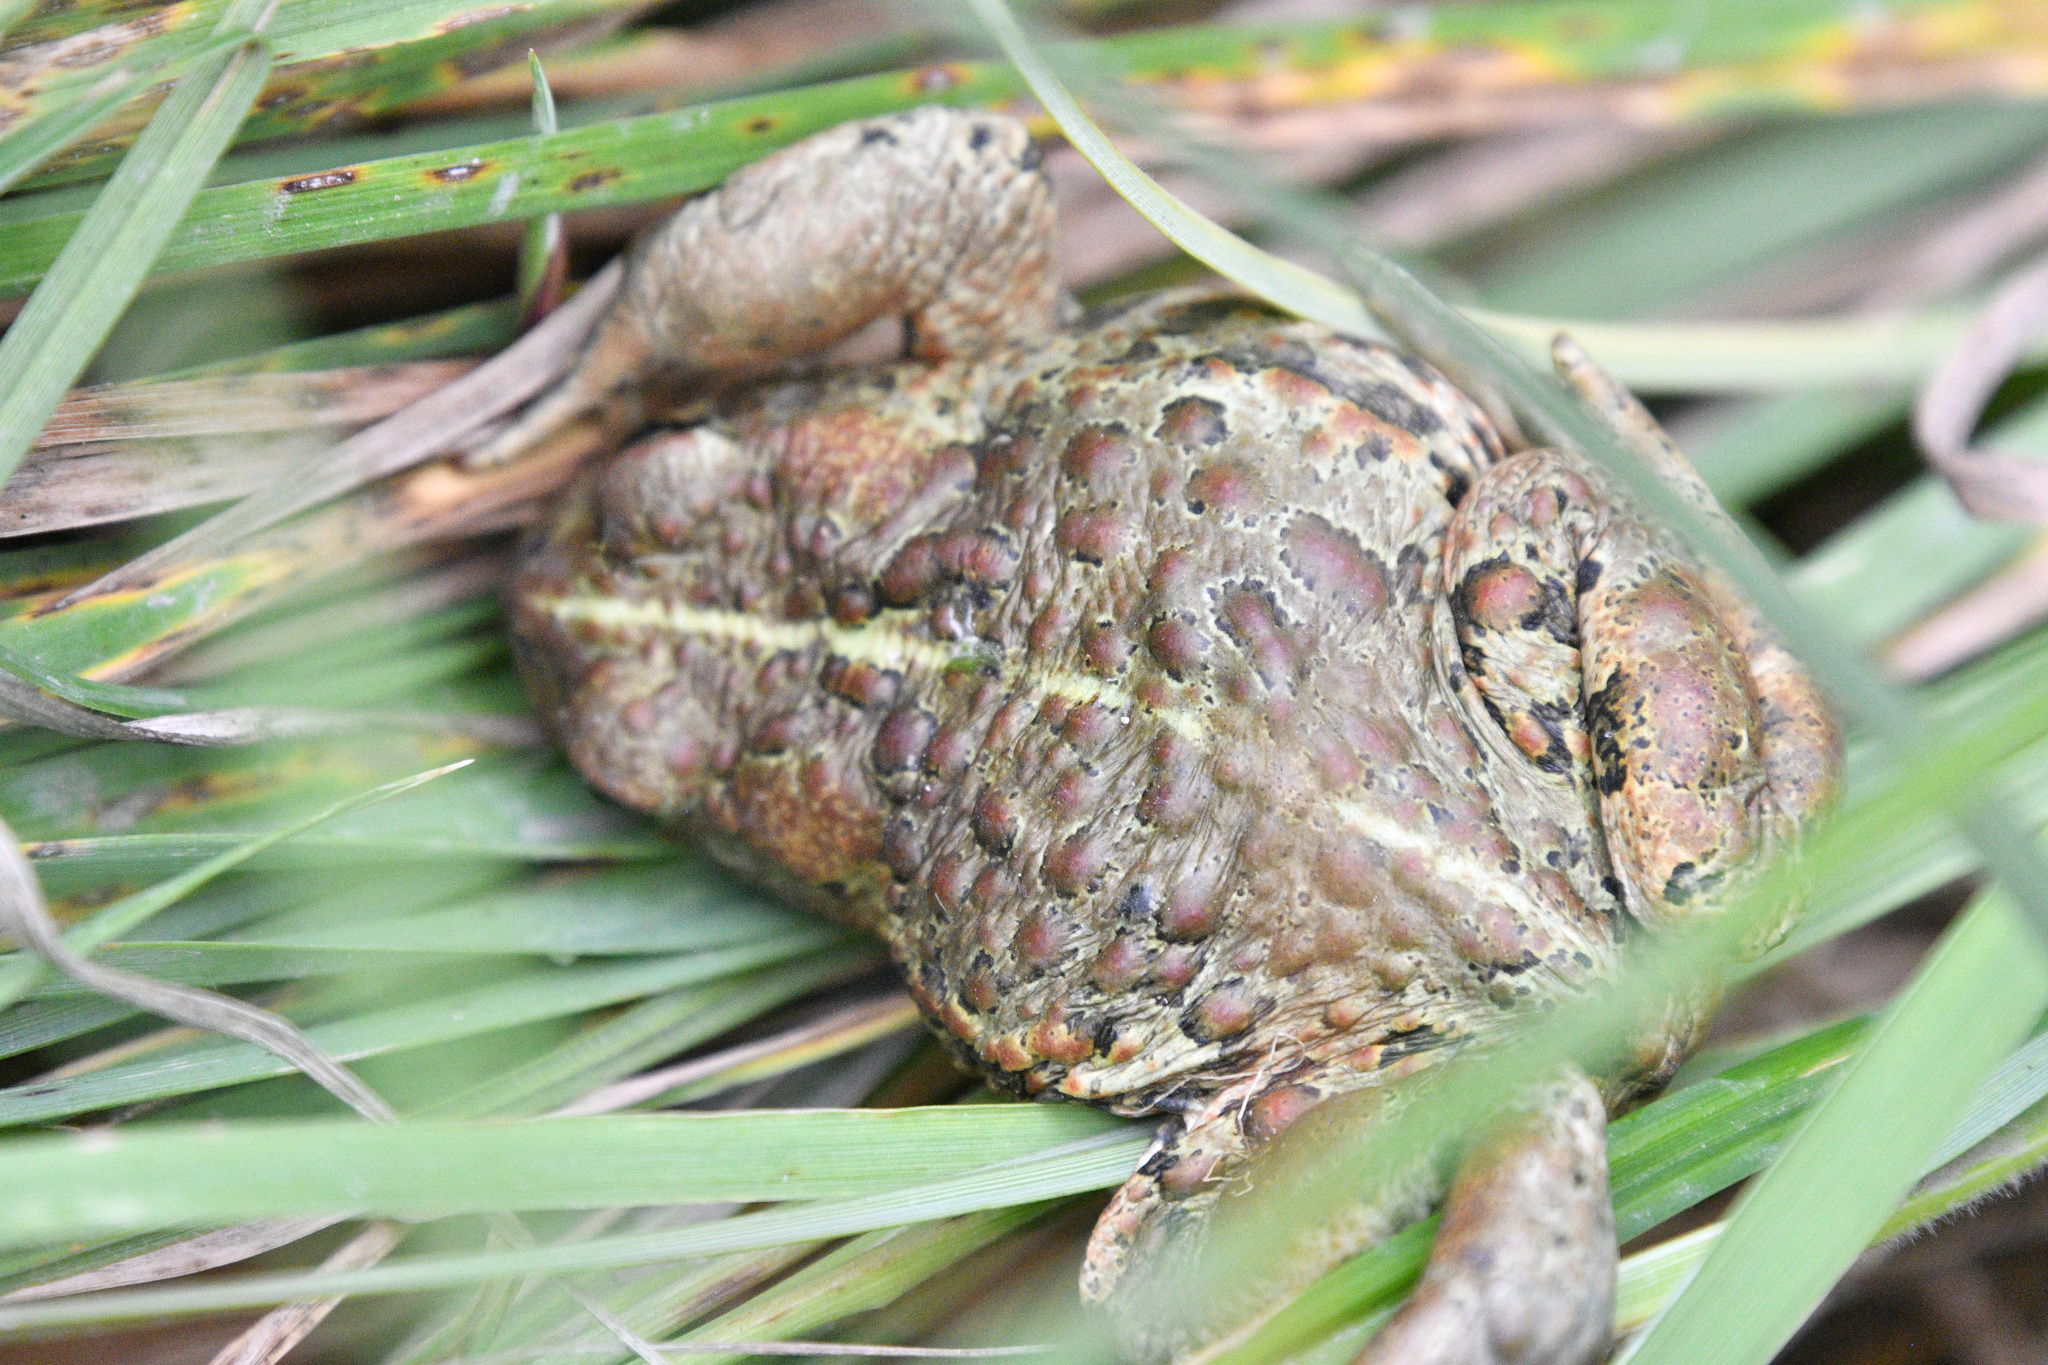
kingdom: Animalia
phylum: Chordata
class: Amphibia
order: Anura
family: Bufonidae
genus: Anaxyrus
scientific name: Anaxyrus boreas
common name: Western toad
